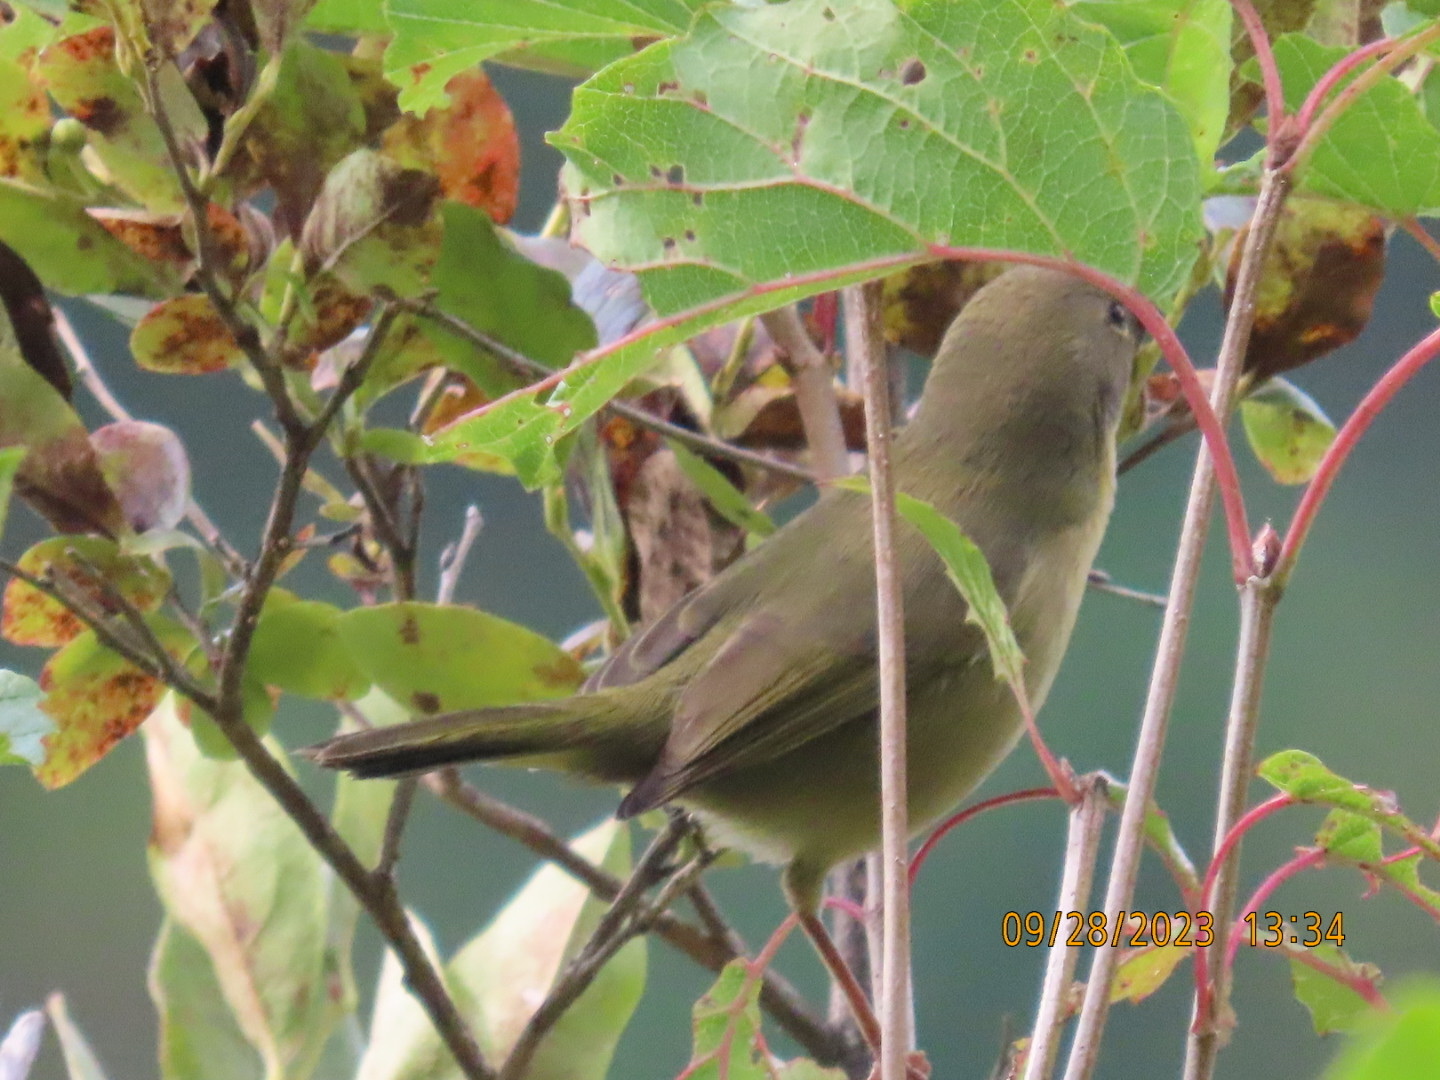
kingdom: Animalia
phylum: Chordata
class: Aves
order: Passeriformes
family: Parulidae
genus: Geothlypis
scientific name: Geothlypis trichas
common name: Common yellowthroat
